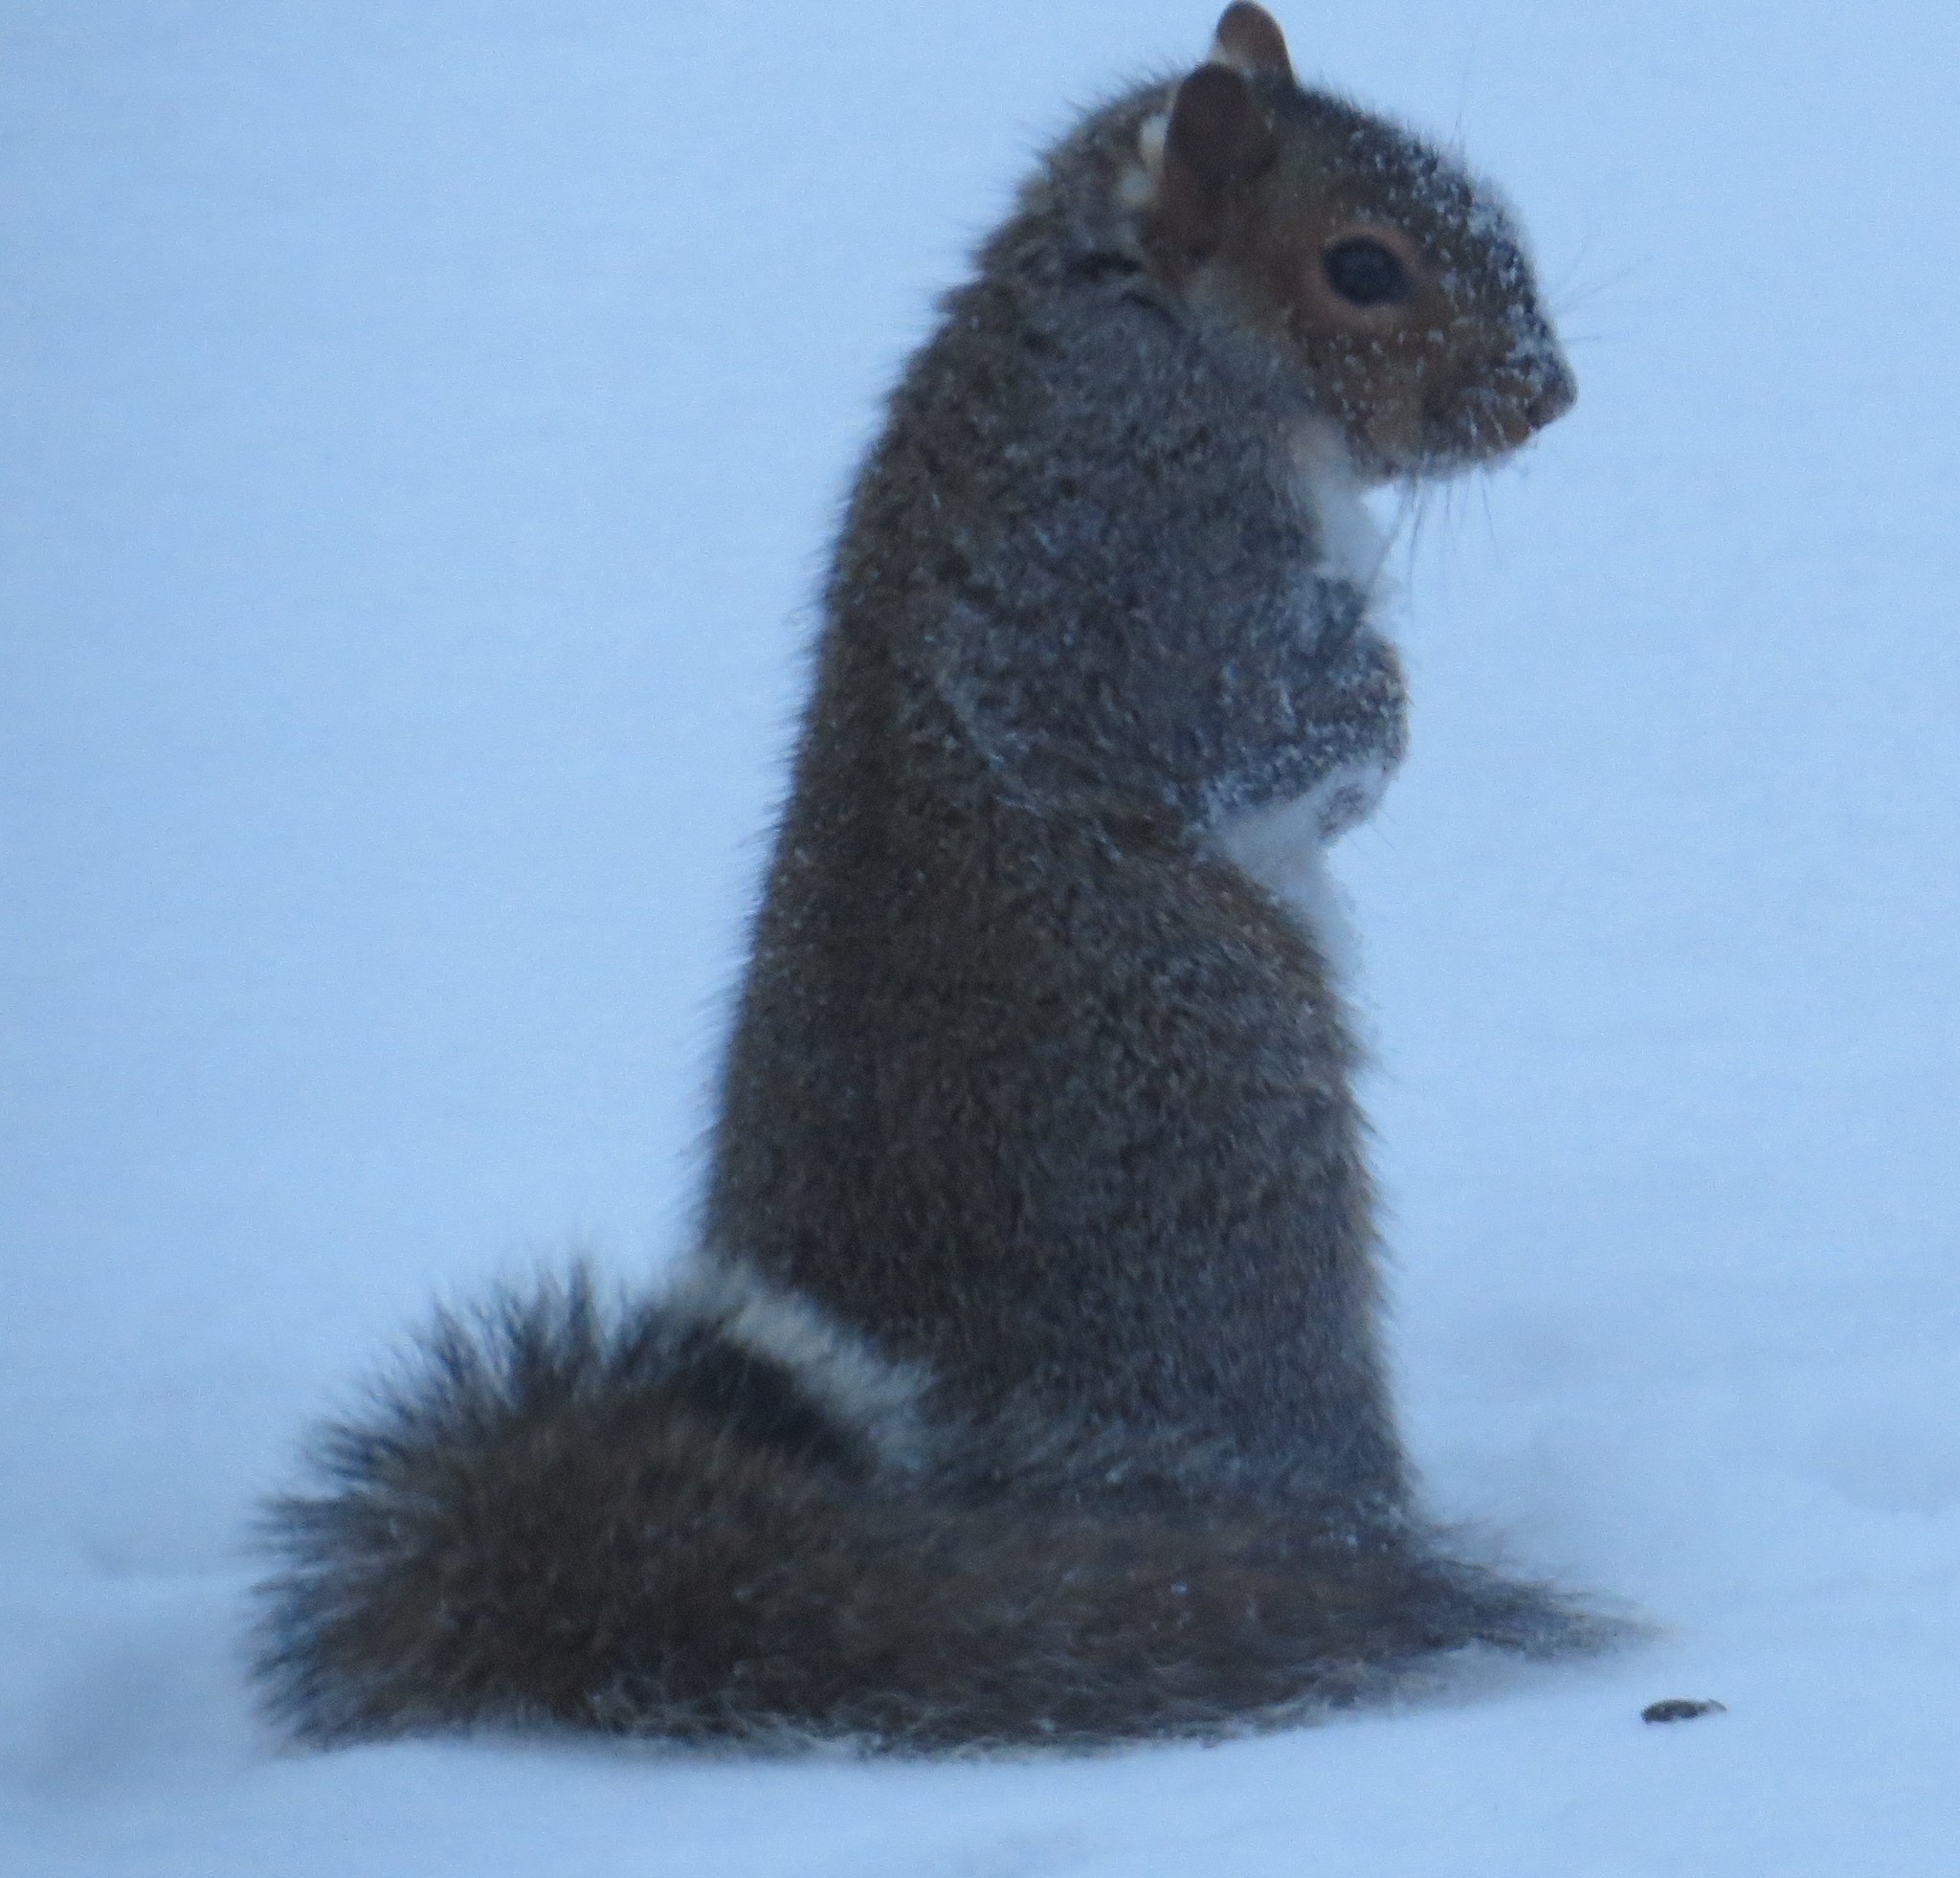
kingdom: Animalia
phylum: Chordata
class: Mammalia
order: Rodentia
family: Sciuridae
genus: Sciurus
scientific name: Sciurus carolinensis
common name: Eastern gray squirrel
